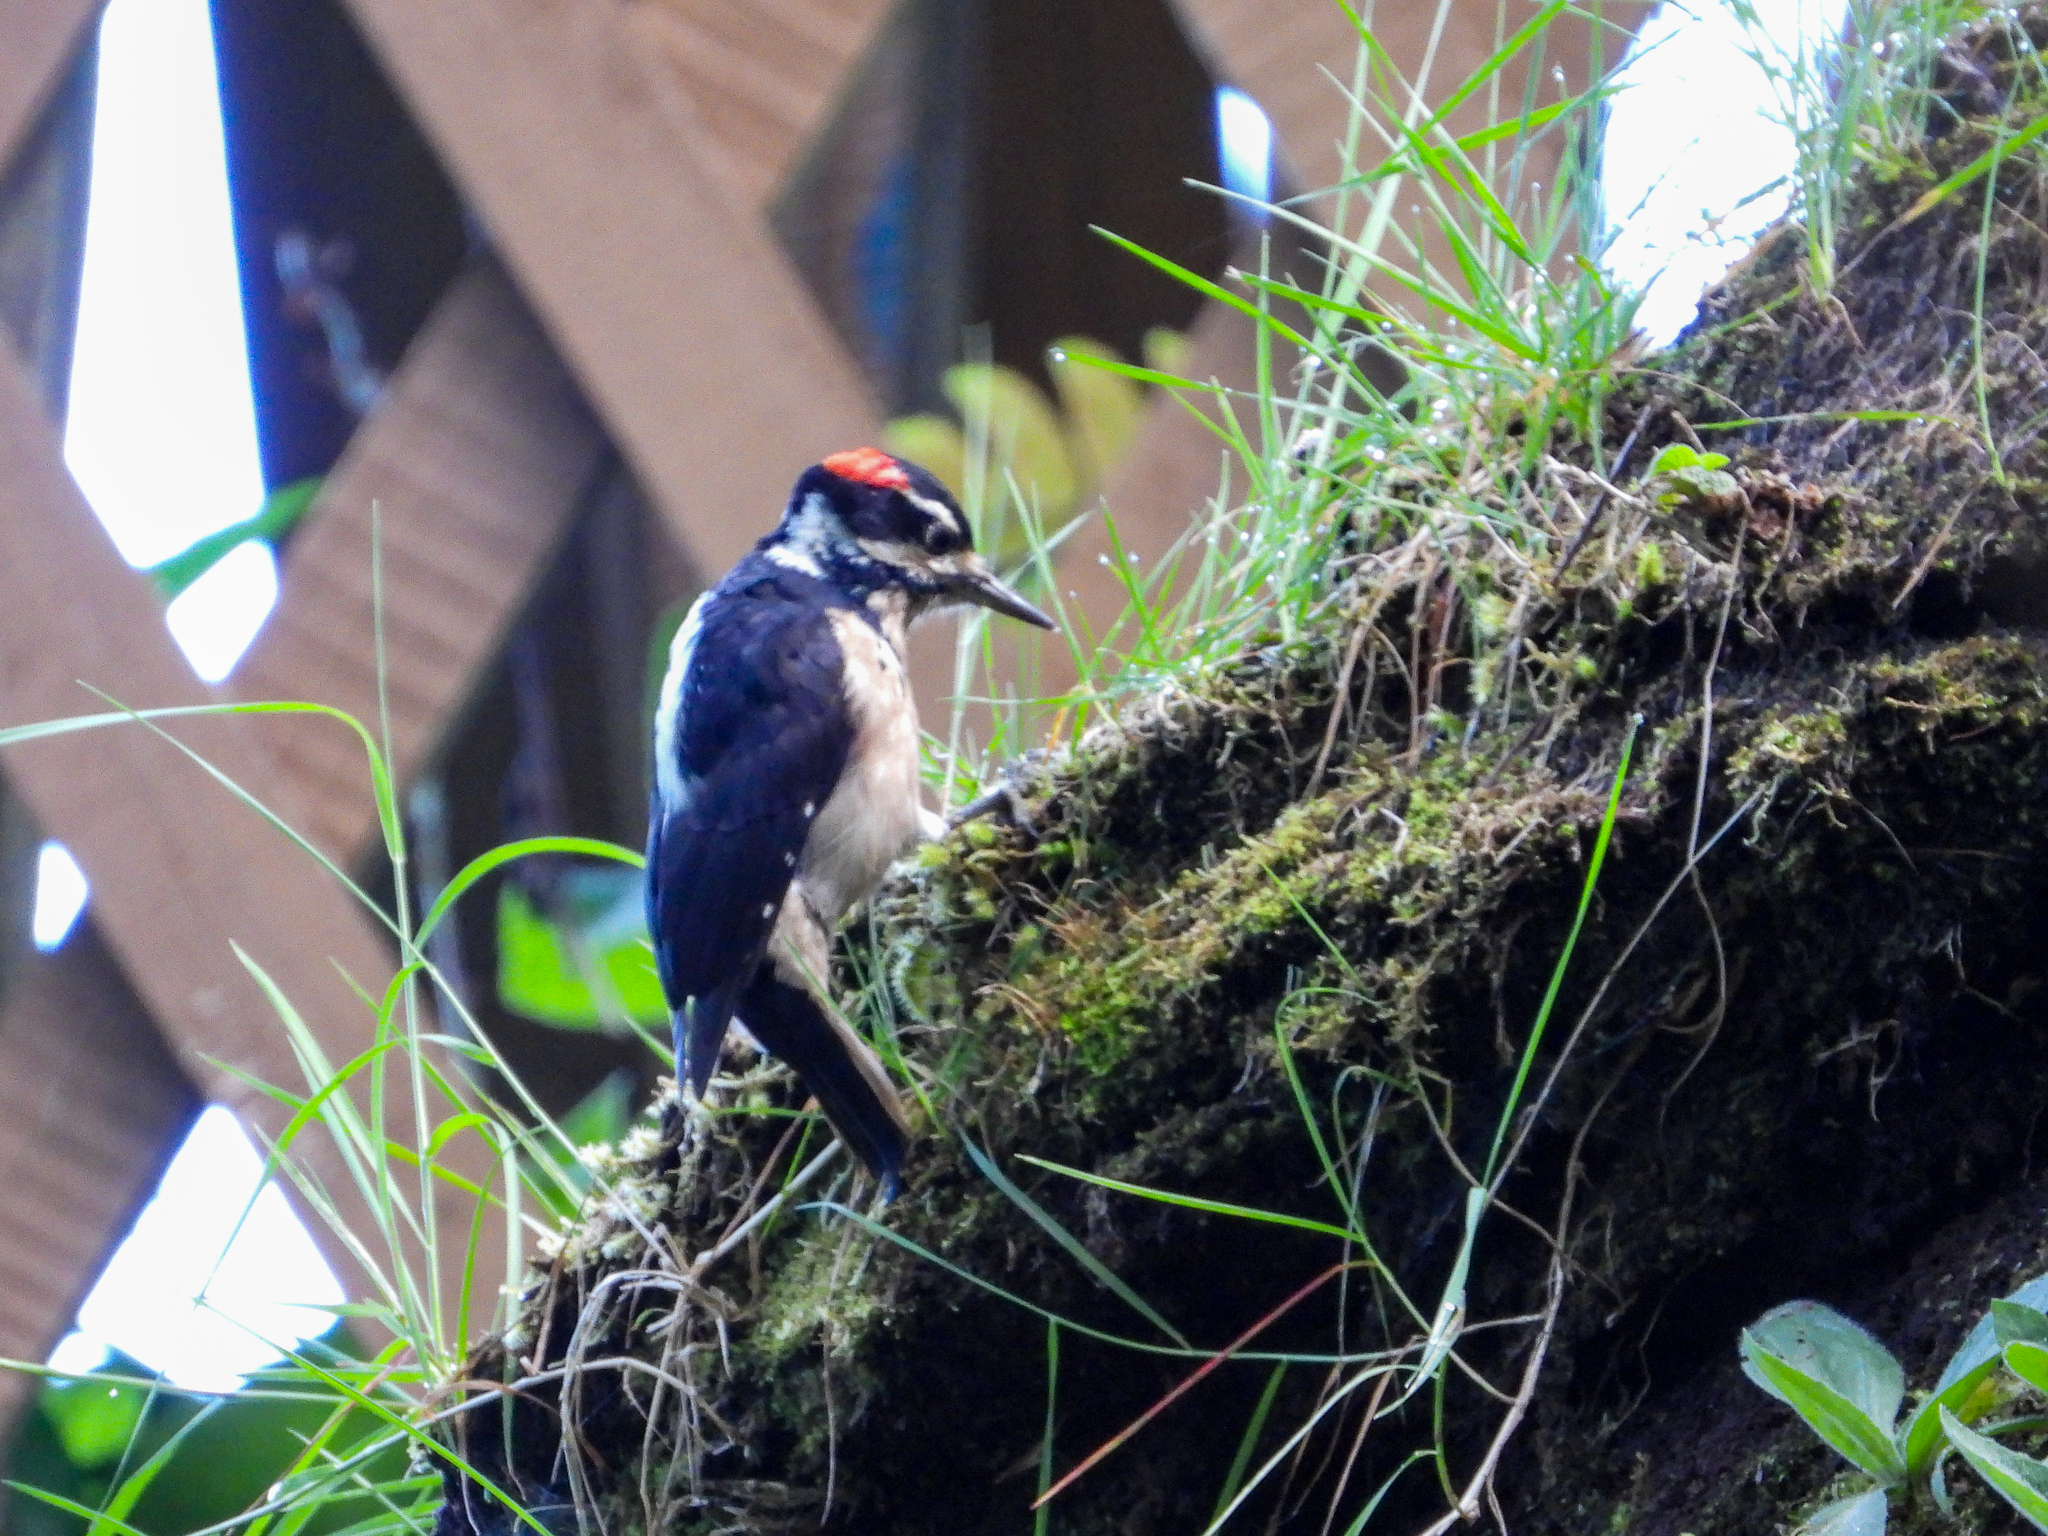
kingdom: Animalia
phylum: Chordata
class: Aves
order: Piciformes
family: Picidae
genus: Leuconotopicus
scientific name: Leuconotopicus villosus
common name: Hairy woodpecker
